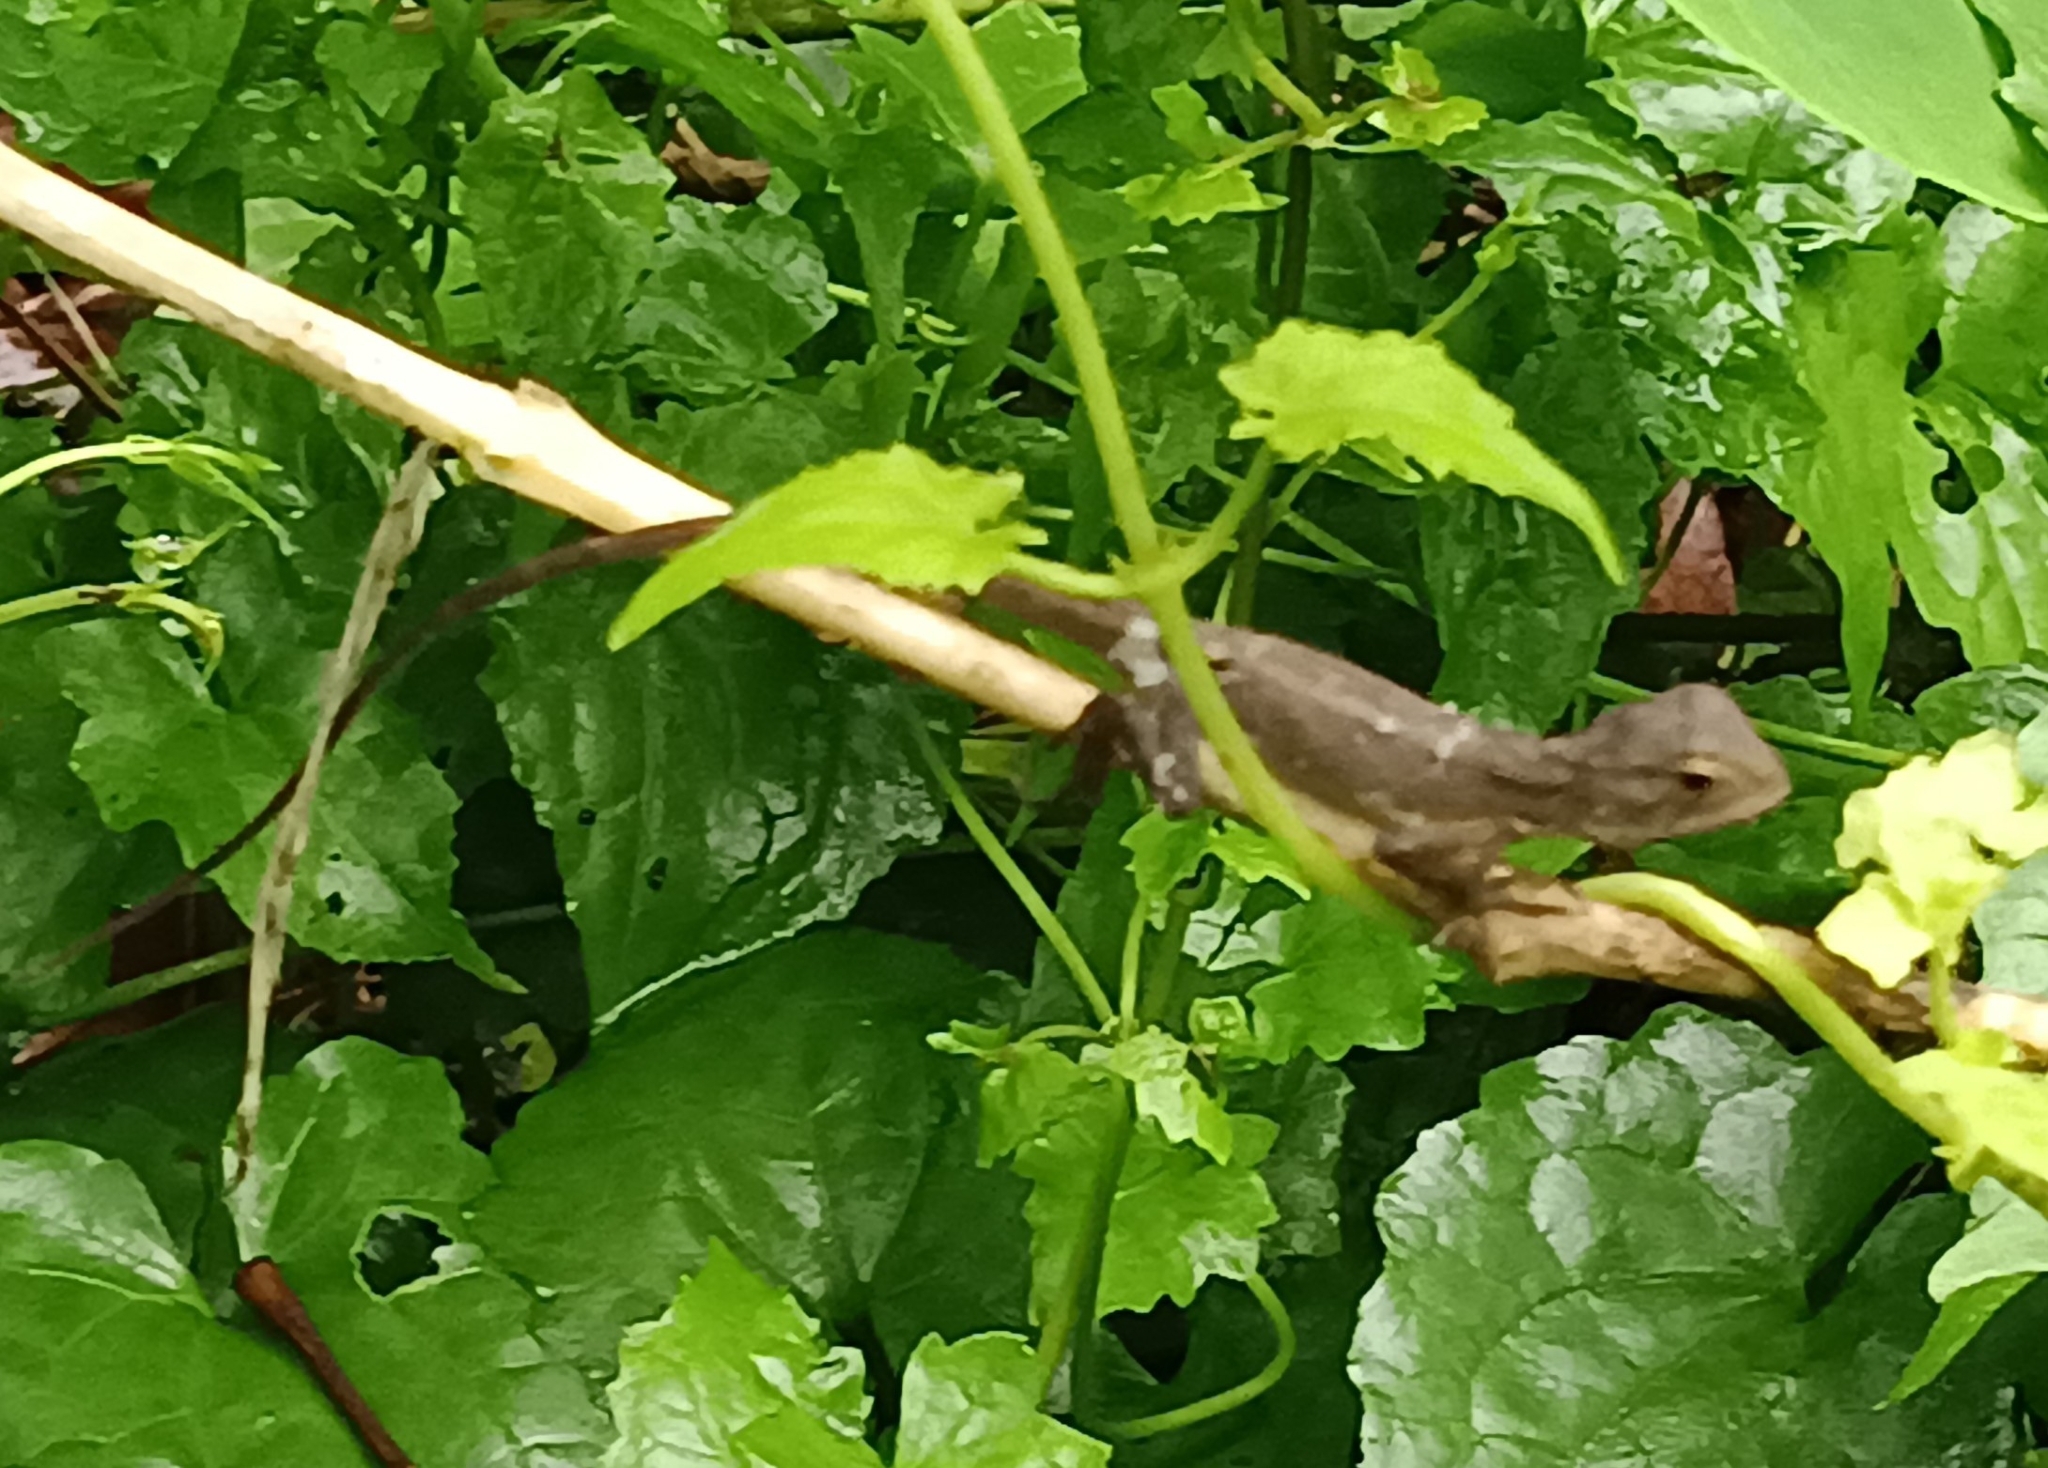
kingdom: Animalia
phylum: Chordata
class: Squamata
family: Agamidae
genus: Calotes
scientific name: Calotes versicolor
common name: Oriental garden lizard
